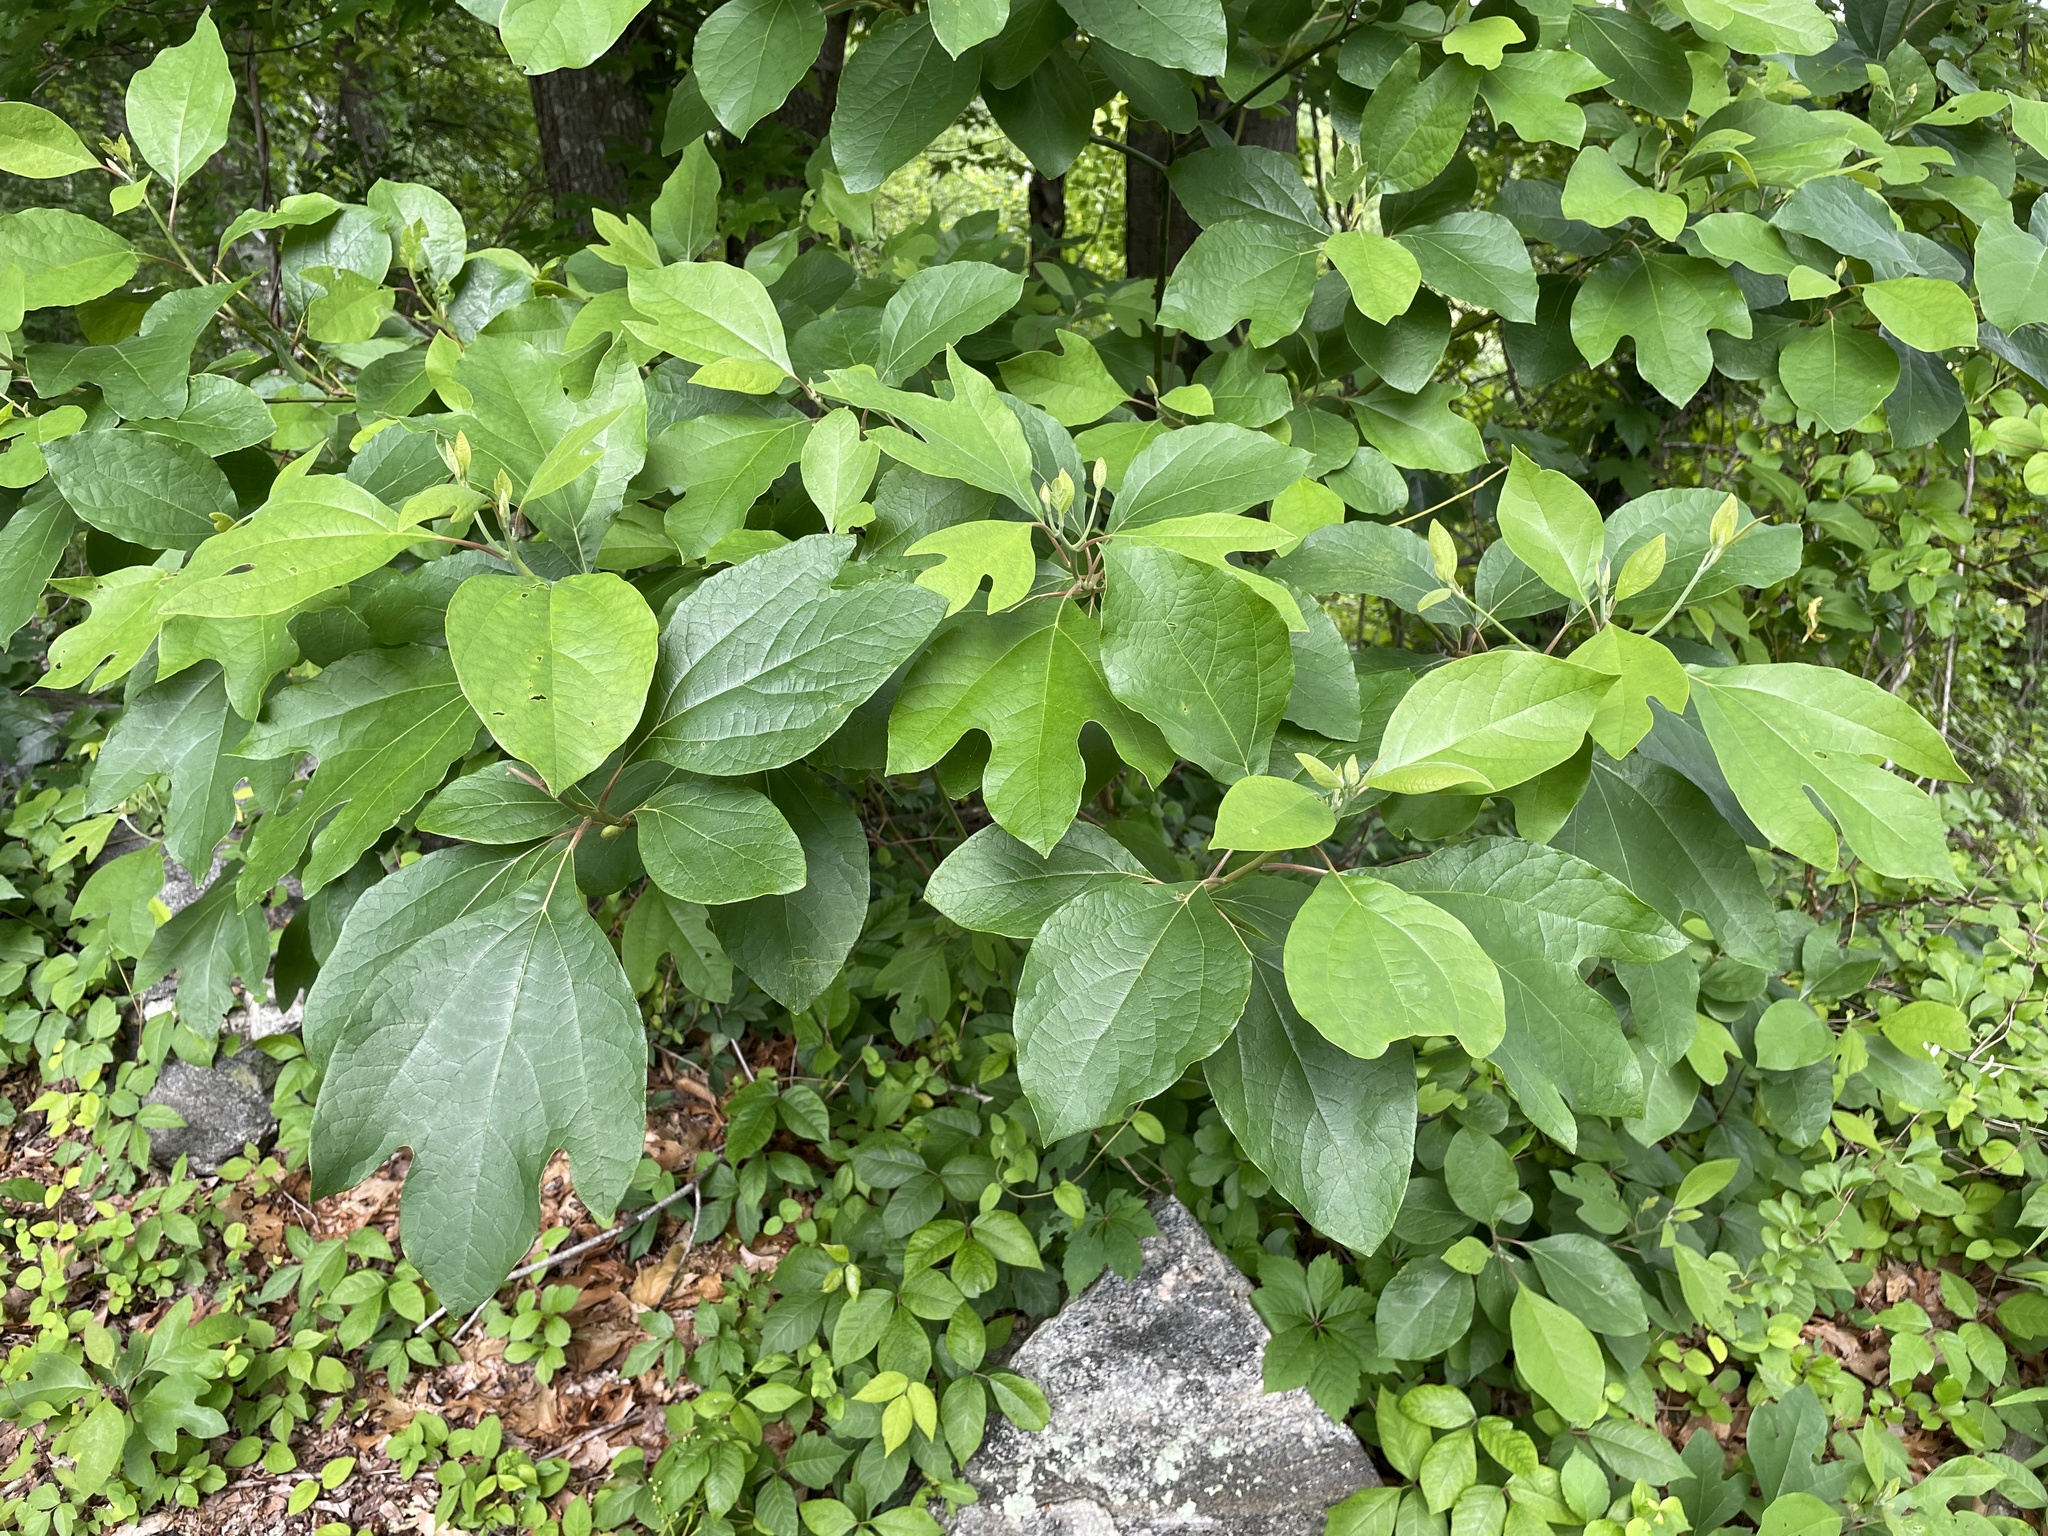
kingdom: Plantae
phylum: Tracheophyta
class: Magnoliopsida
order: Laurales
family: Lauraceae
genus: Sassafras
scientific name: Sassafras albidum
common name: Sassafras
